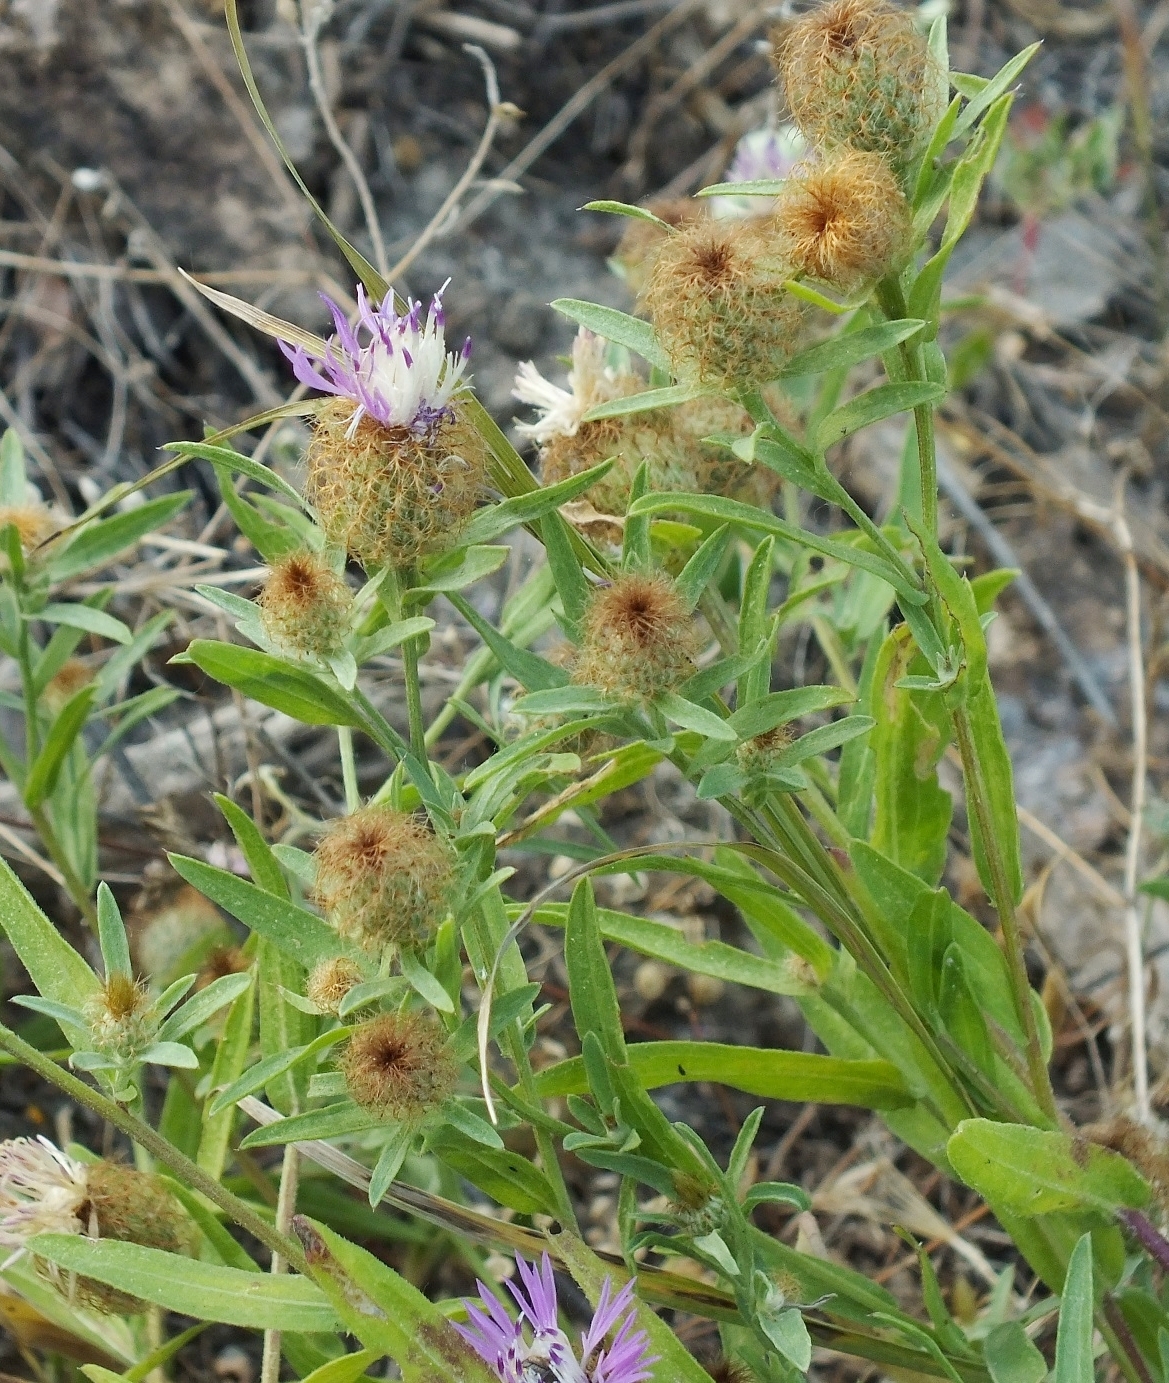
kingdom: Plantae
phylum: Tracheophyta
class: Magnoliopsida
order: Asterales
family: Asteraceae
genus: Centaurea
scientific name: Centaurea trichocephala
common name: Feather-head knapweed
